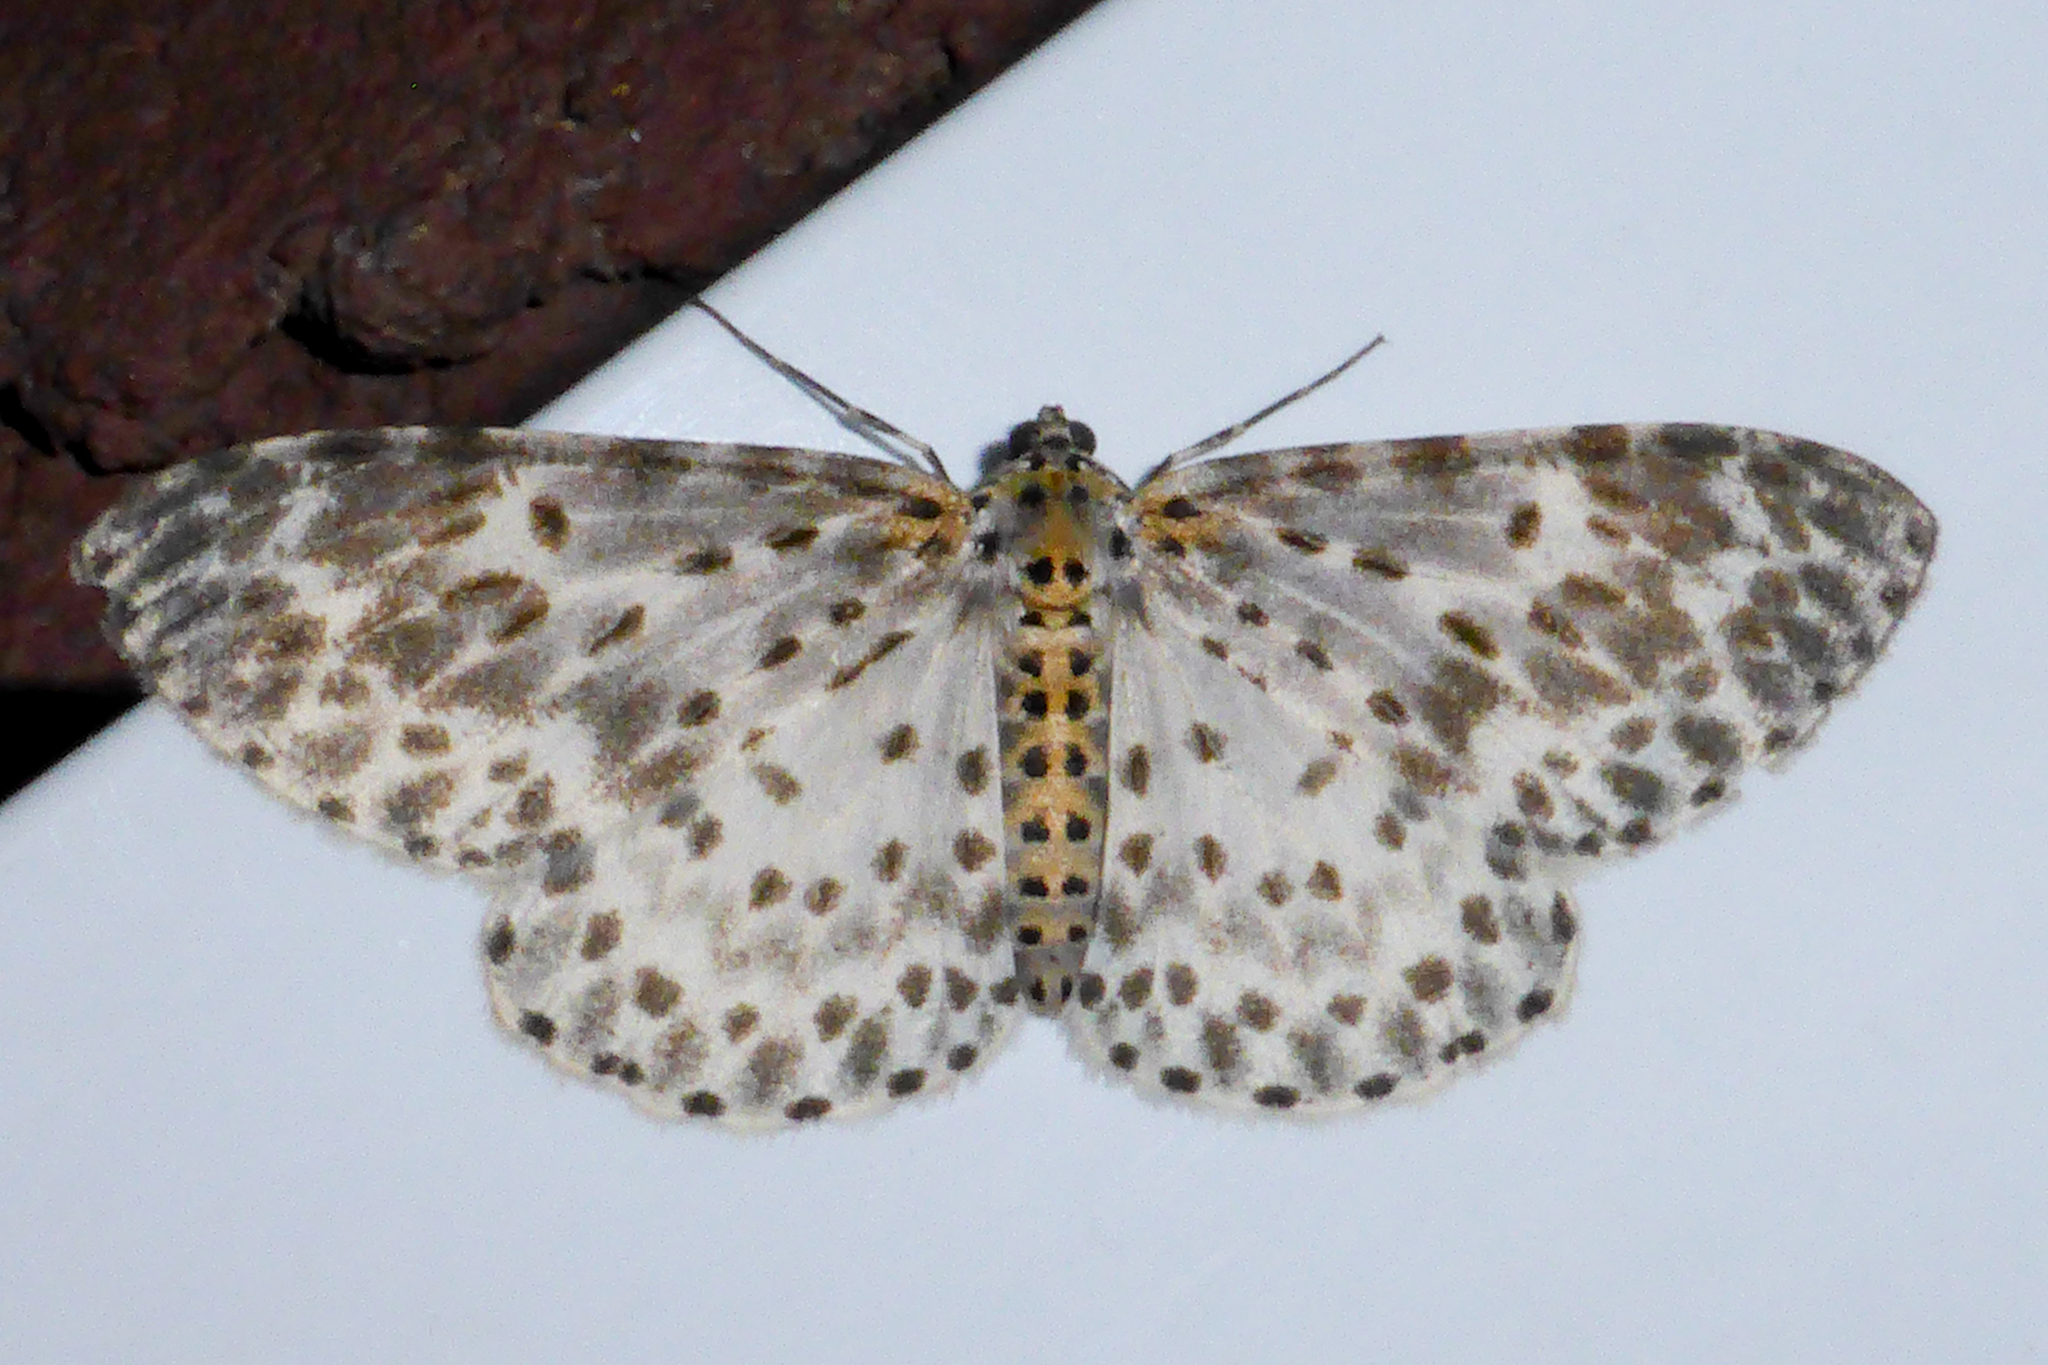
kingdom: Animalia
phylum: Arthropoda
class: Insecta
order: Lepidoptera
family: Geometridae
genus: Percnia
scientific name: Percnia fumidaria
